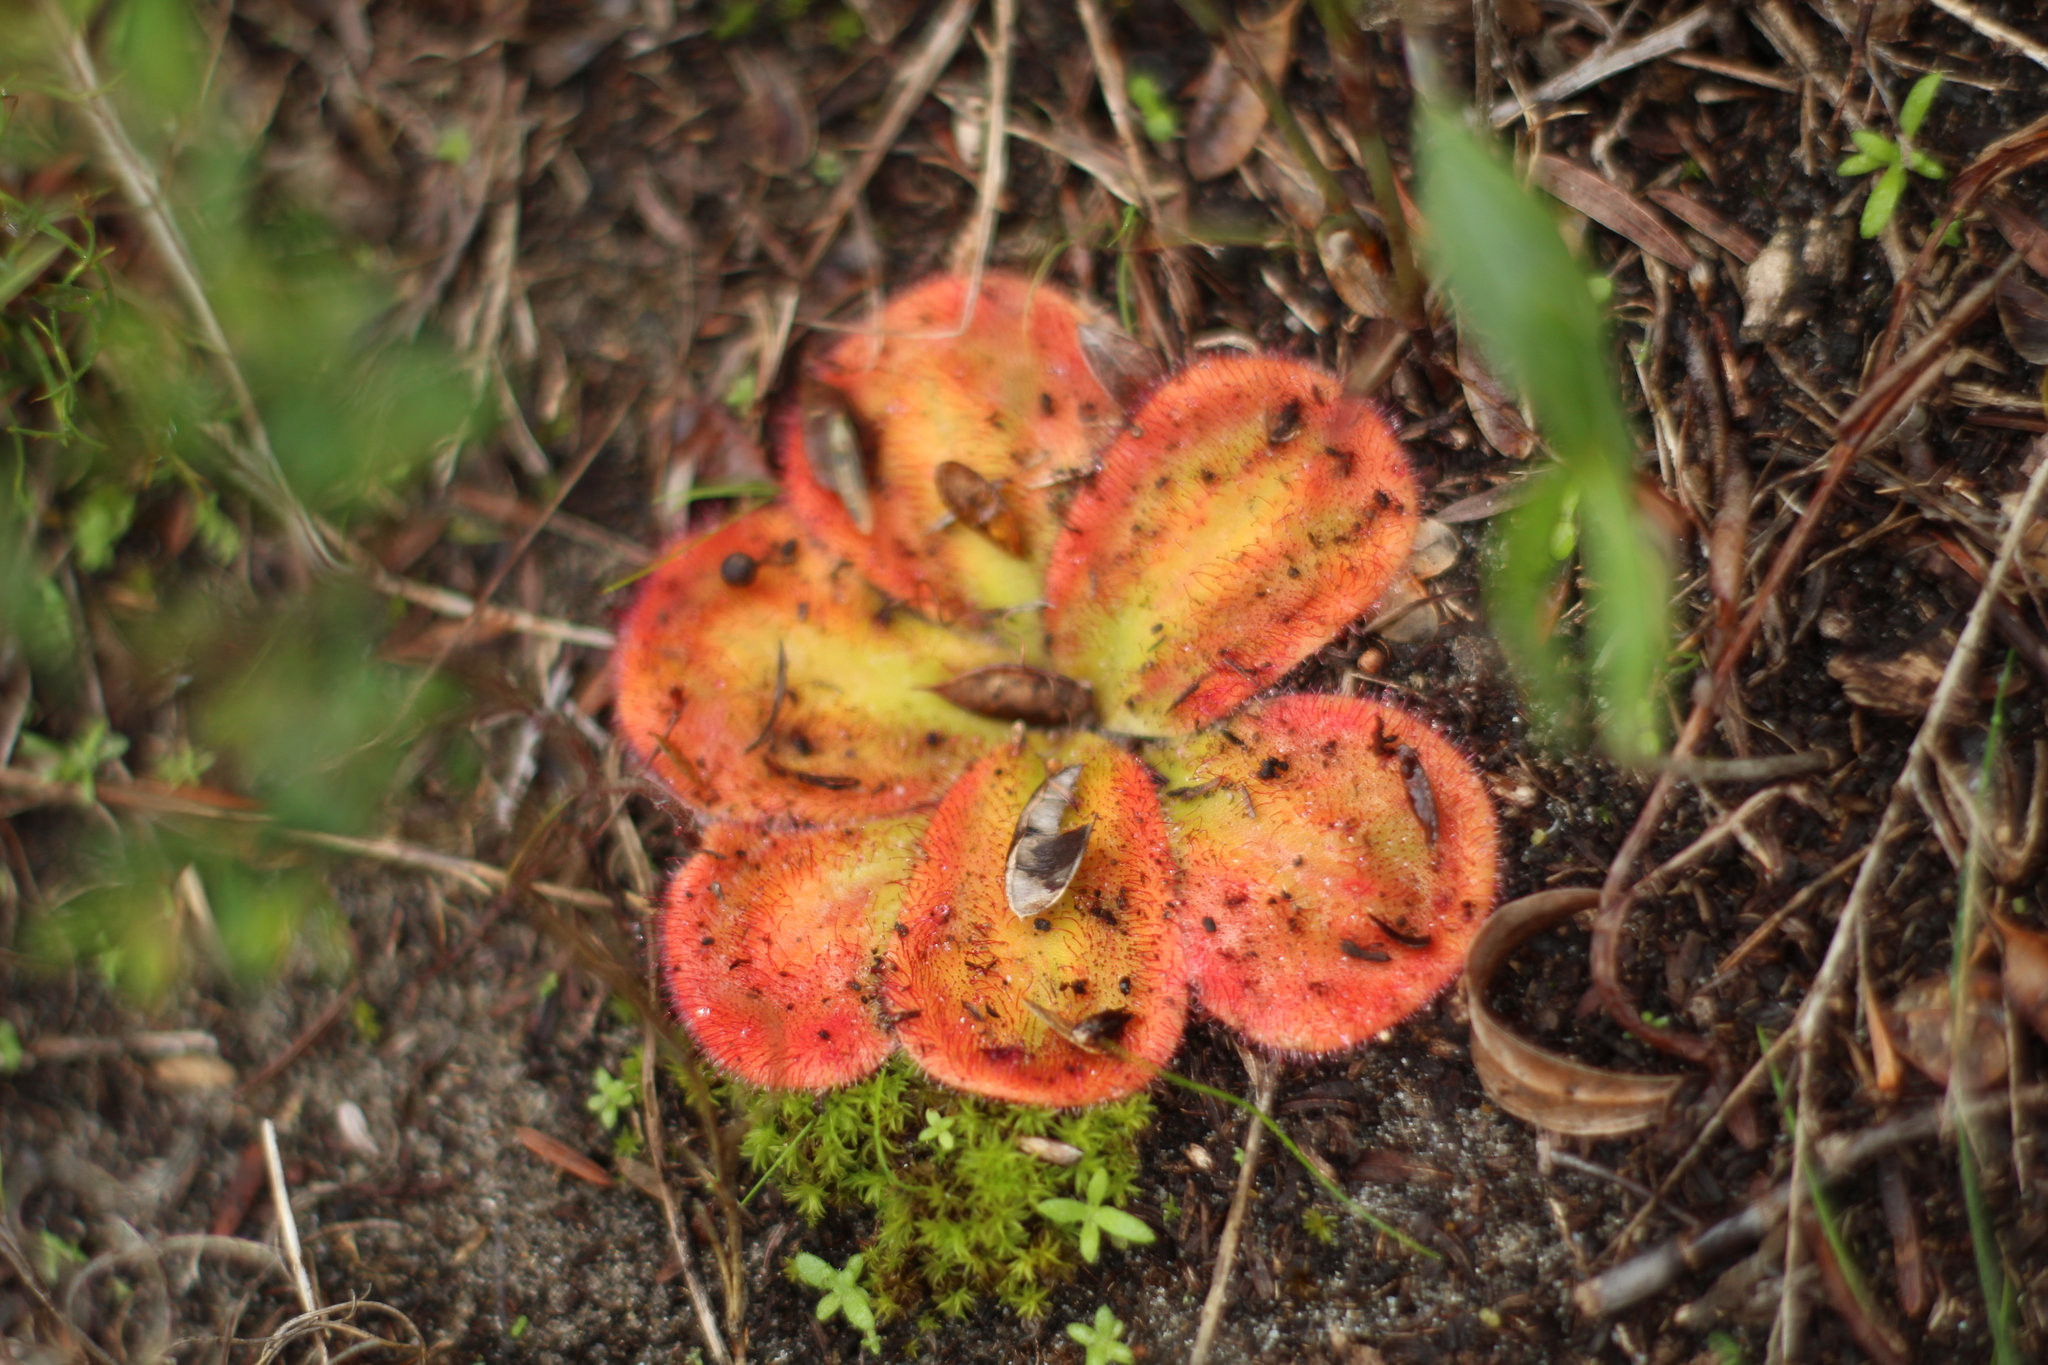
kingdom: Plantae
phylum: Tracheophyta
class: Magnoliopsida
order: Caryophyllales
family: Droseraceae
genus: Drosera
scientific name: Drosera erythrorhiza
